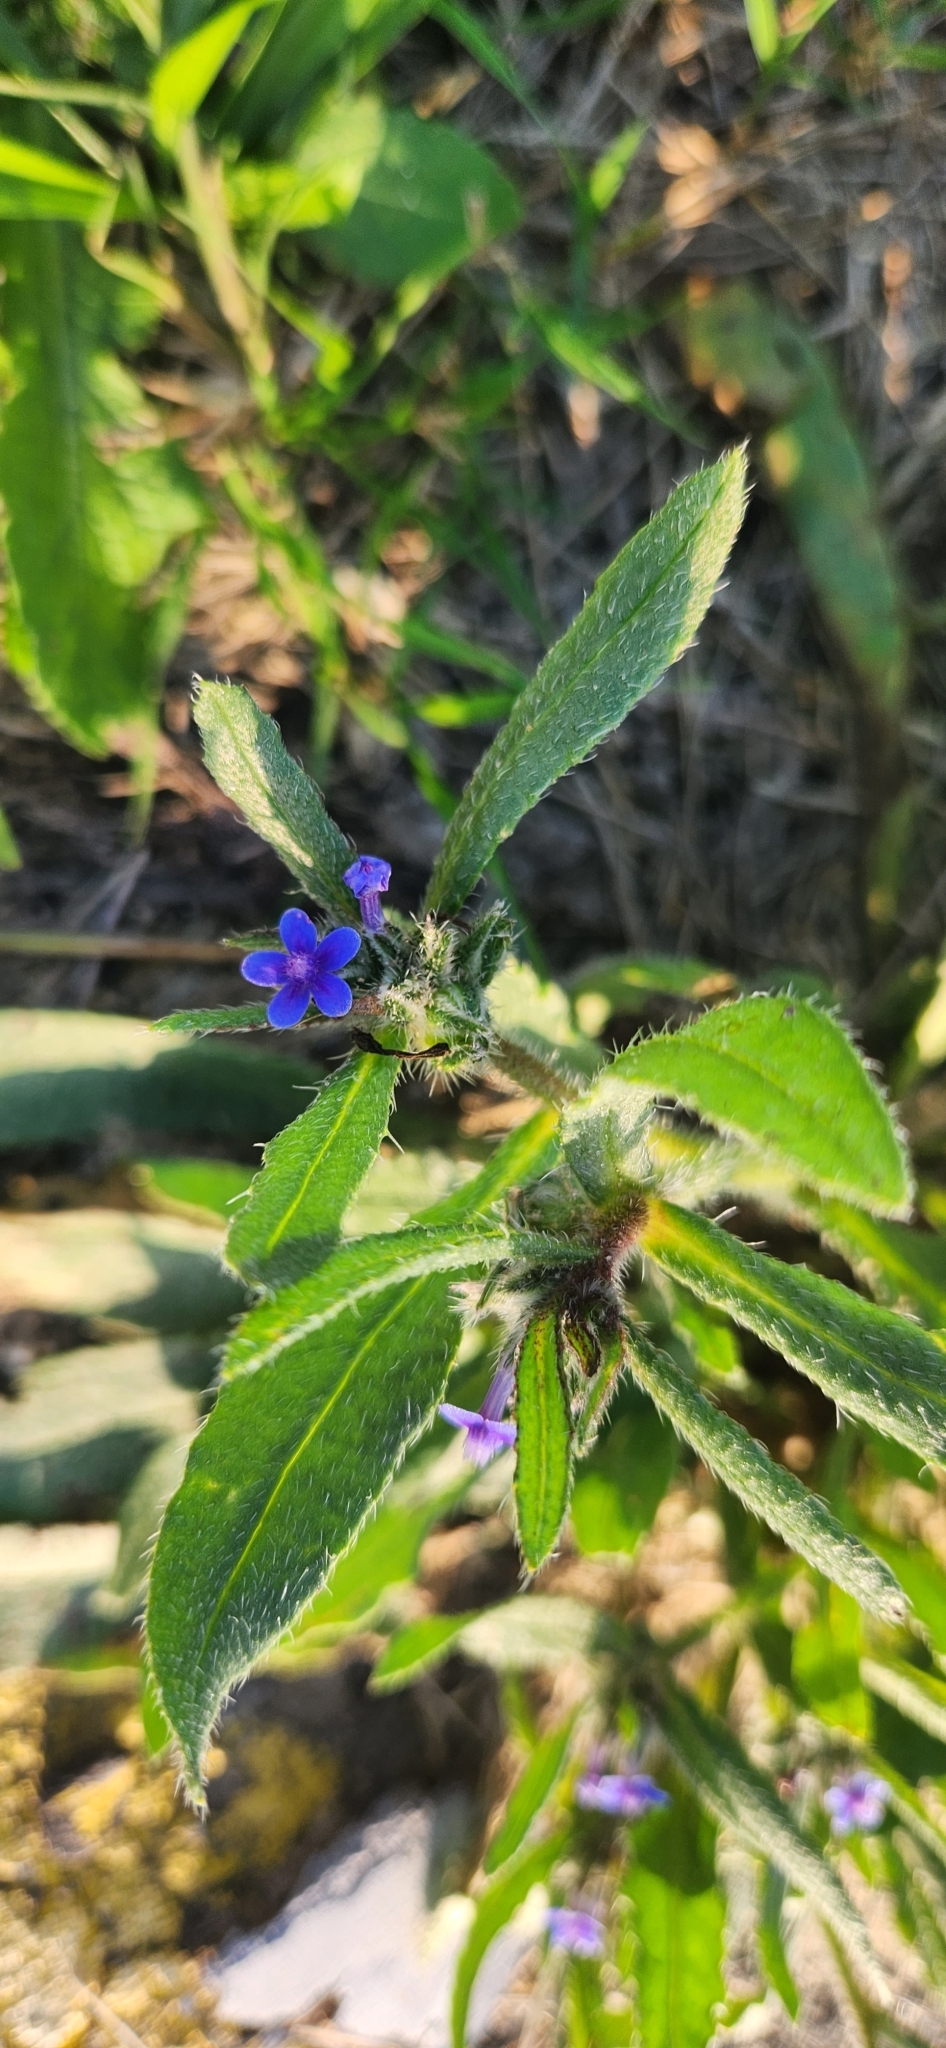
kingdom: Plantae
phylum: Tracheophyta
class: Magnoliopsida
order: Boraginales
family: Boraginaceae
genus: Hormuzakia
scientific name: Hormuzakia aggregata
